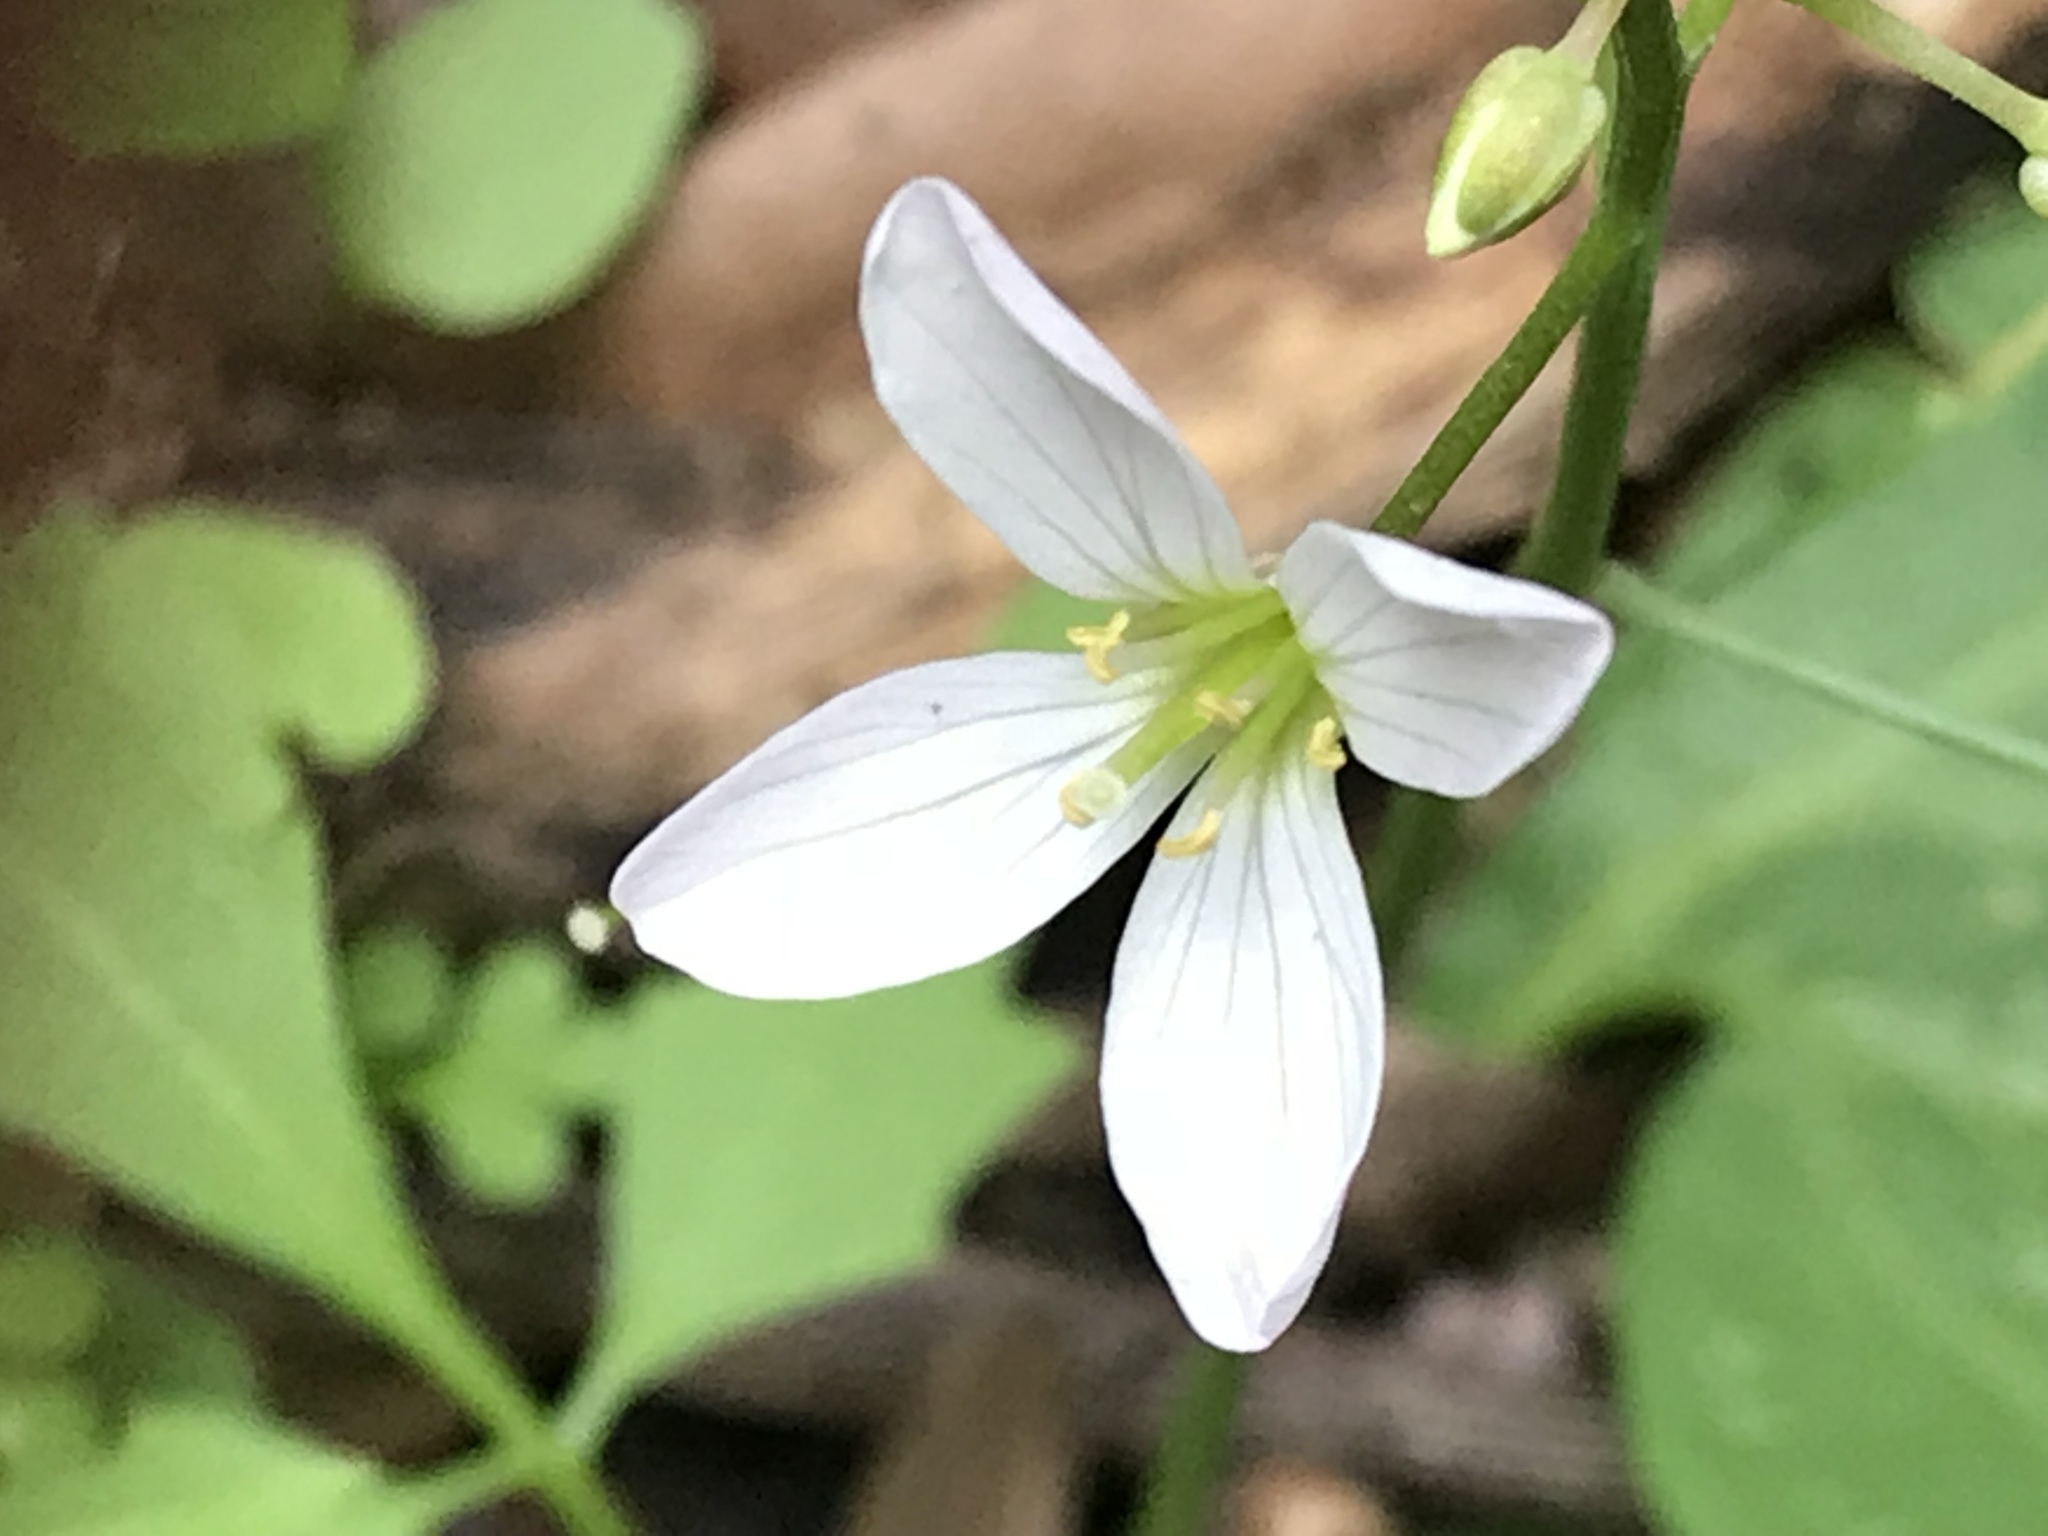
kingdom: Plantae
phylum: Tracheophyta
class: Magnoliopsida
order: Brassicales
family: Brassicaceae
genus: Cardamine
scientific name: Cardamine californica
